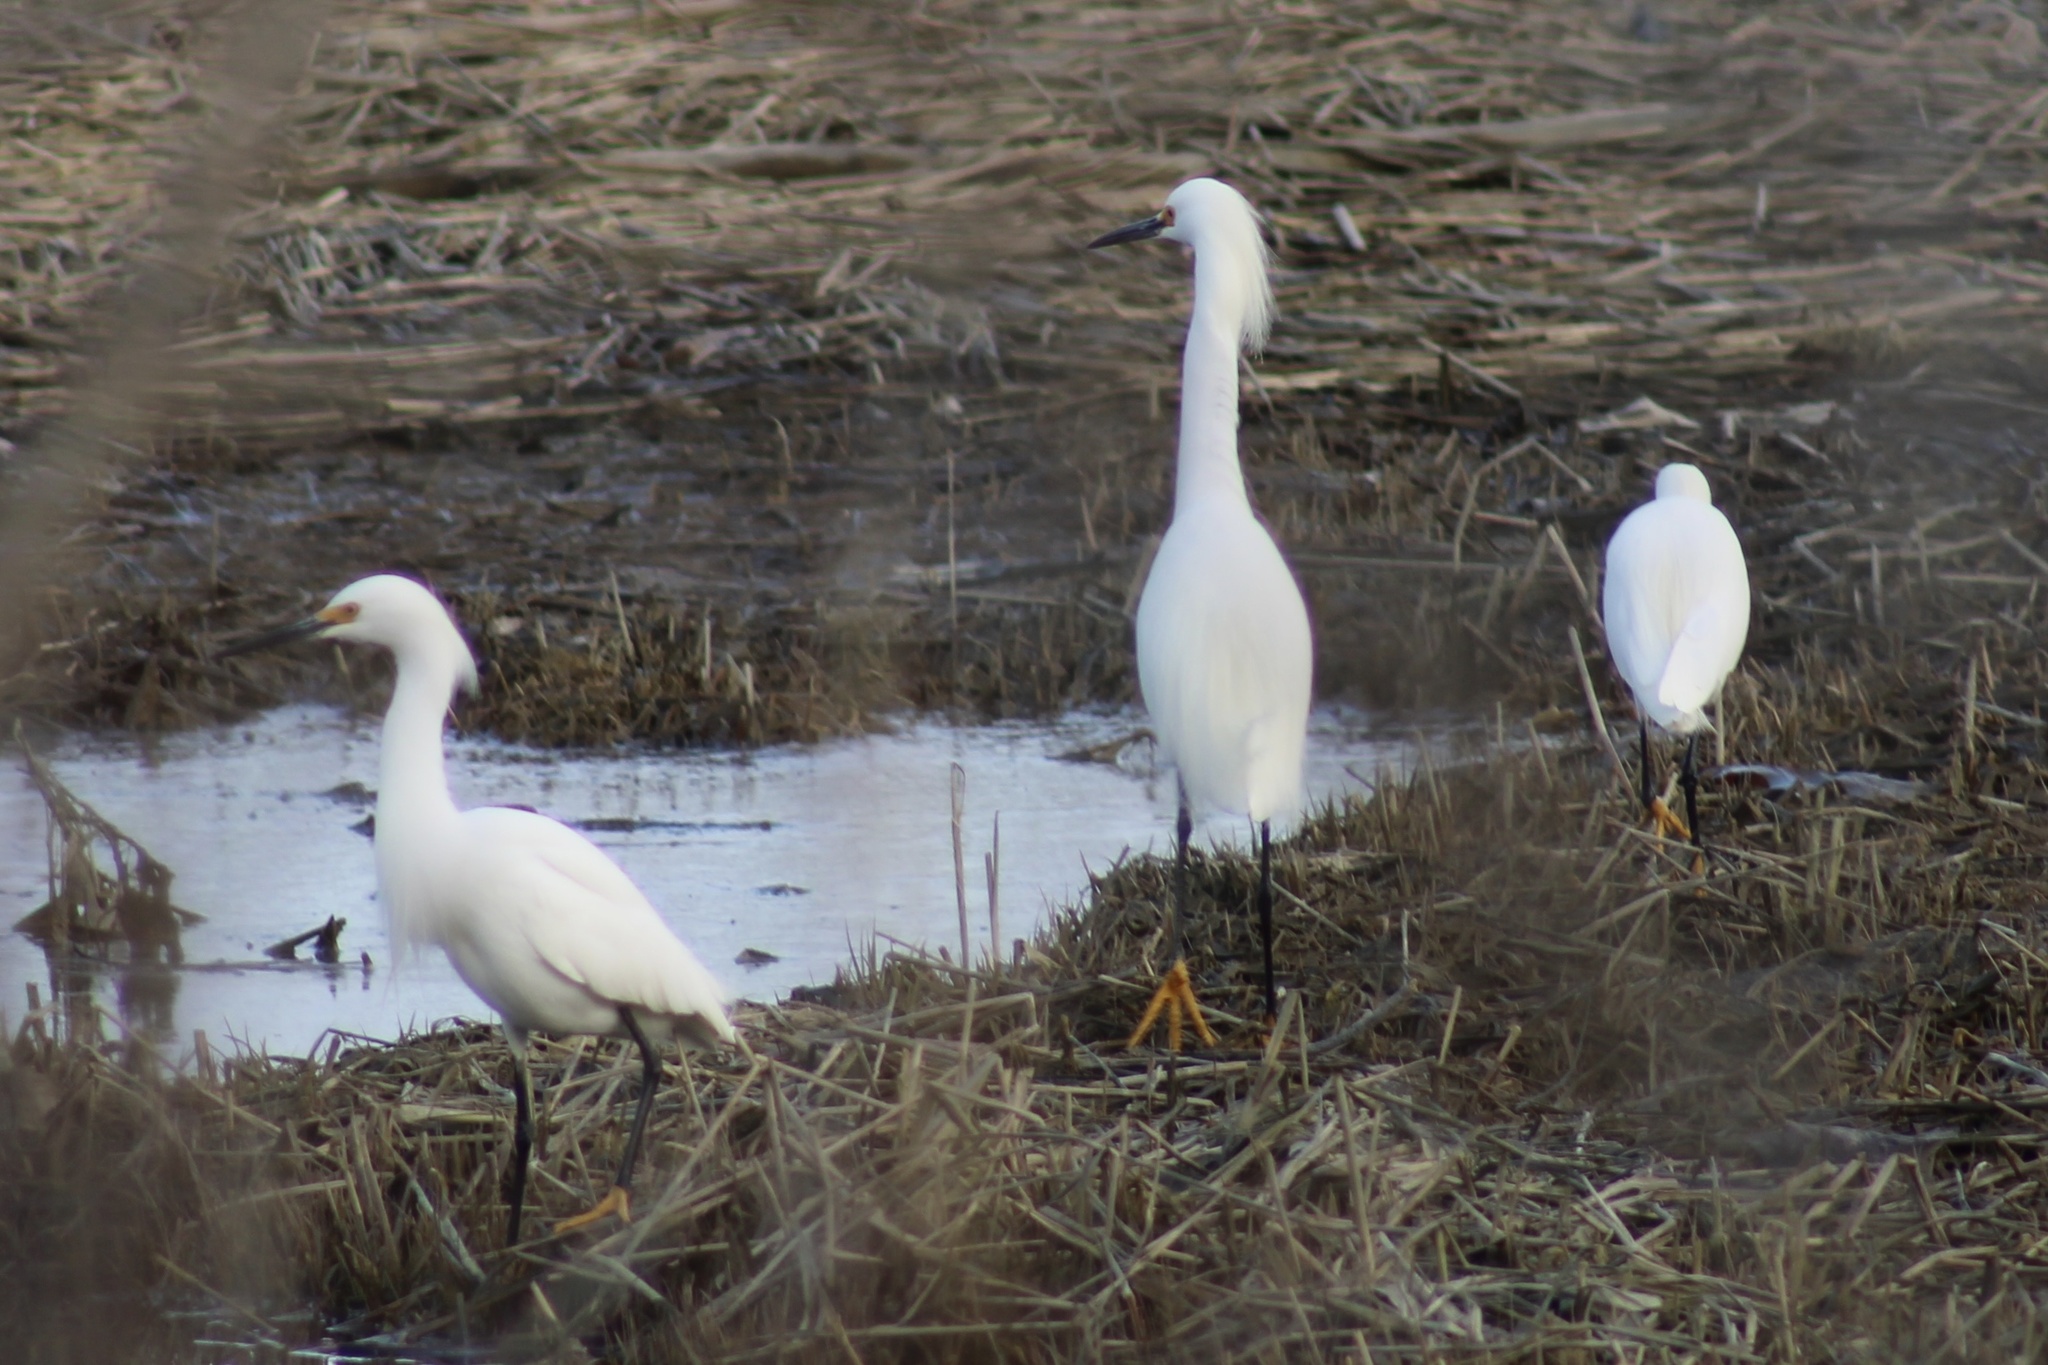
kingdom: Animalia
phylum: Chordata
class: Aves
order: Pelecaniformes
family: Ardeidae
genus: Egretta
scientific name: Egretta thula
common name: Snowy egret
